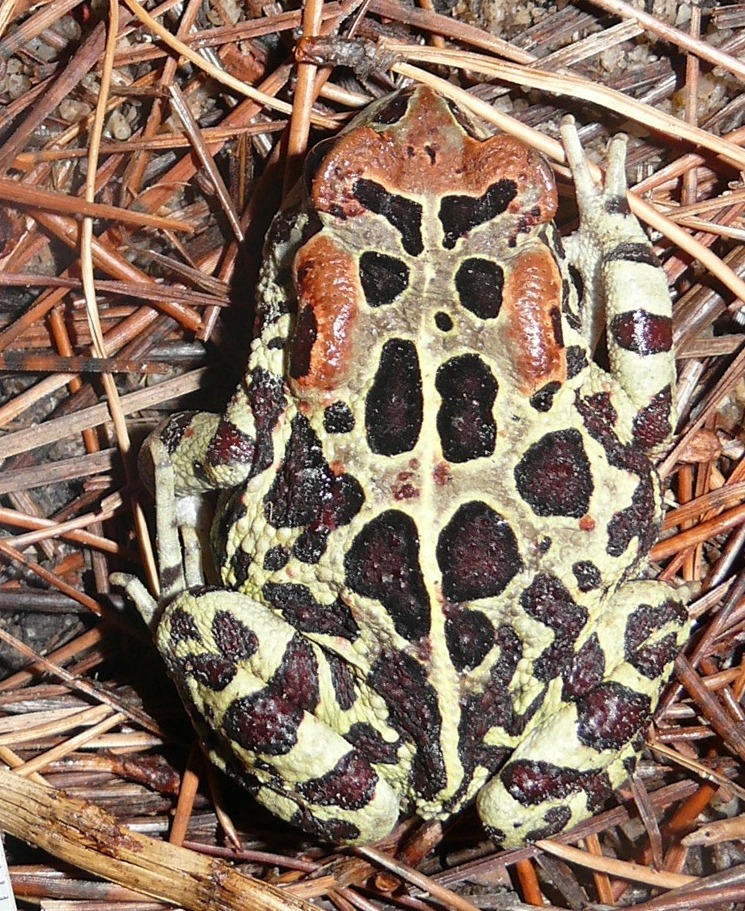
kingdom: Animalia
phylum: Chordata
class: Amphibia
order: Anura
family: Bufonidae
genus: Sclerophrys
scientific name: Sclerophrys pantherina
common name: Panther toad
